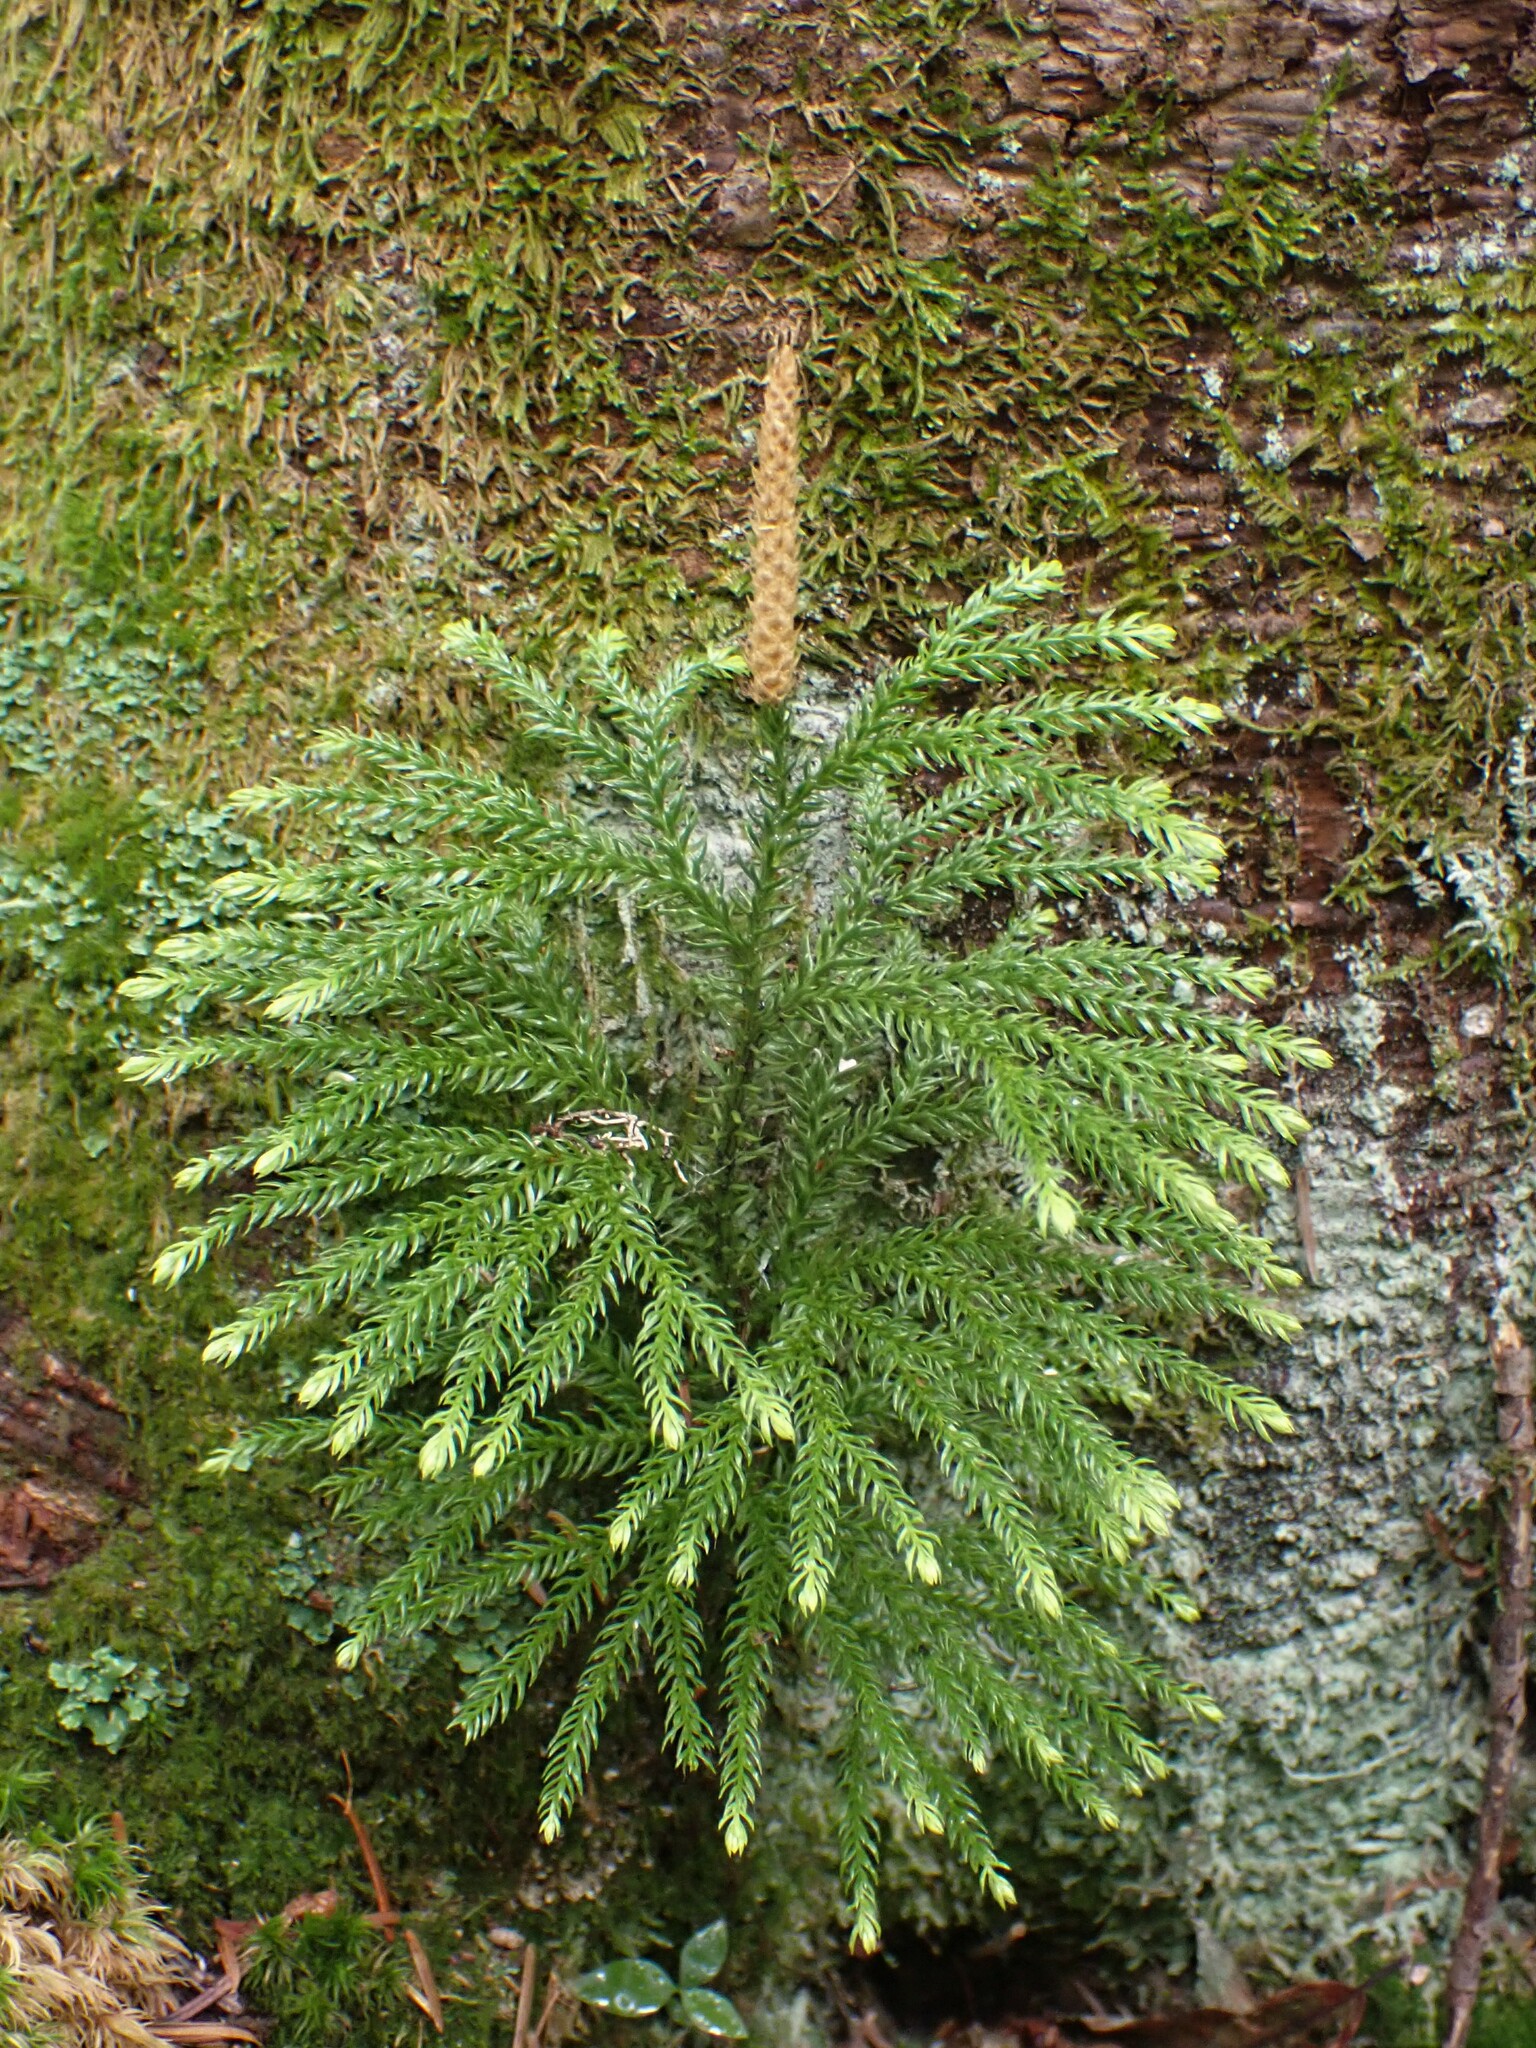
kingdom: Plantae
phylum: Tracheophyta
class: Lycopodiopsida
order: Lycopodiales
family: Lycopodiaceae
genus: Dendrolycopodium
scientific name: Dendrolycopodium dendroideum
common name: Northern tree-clubmoss
